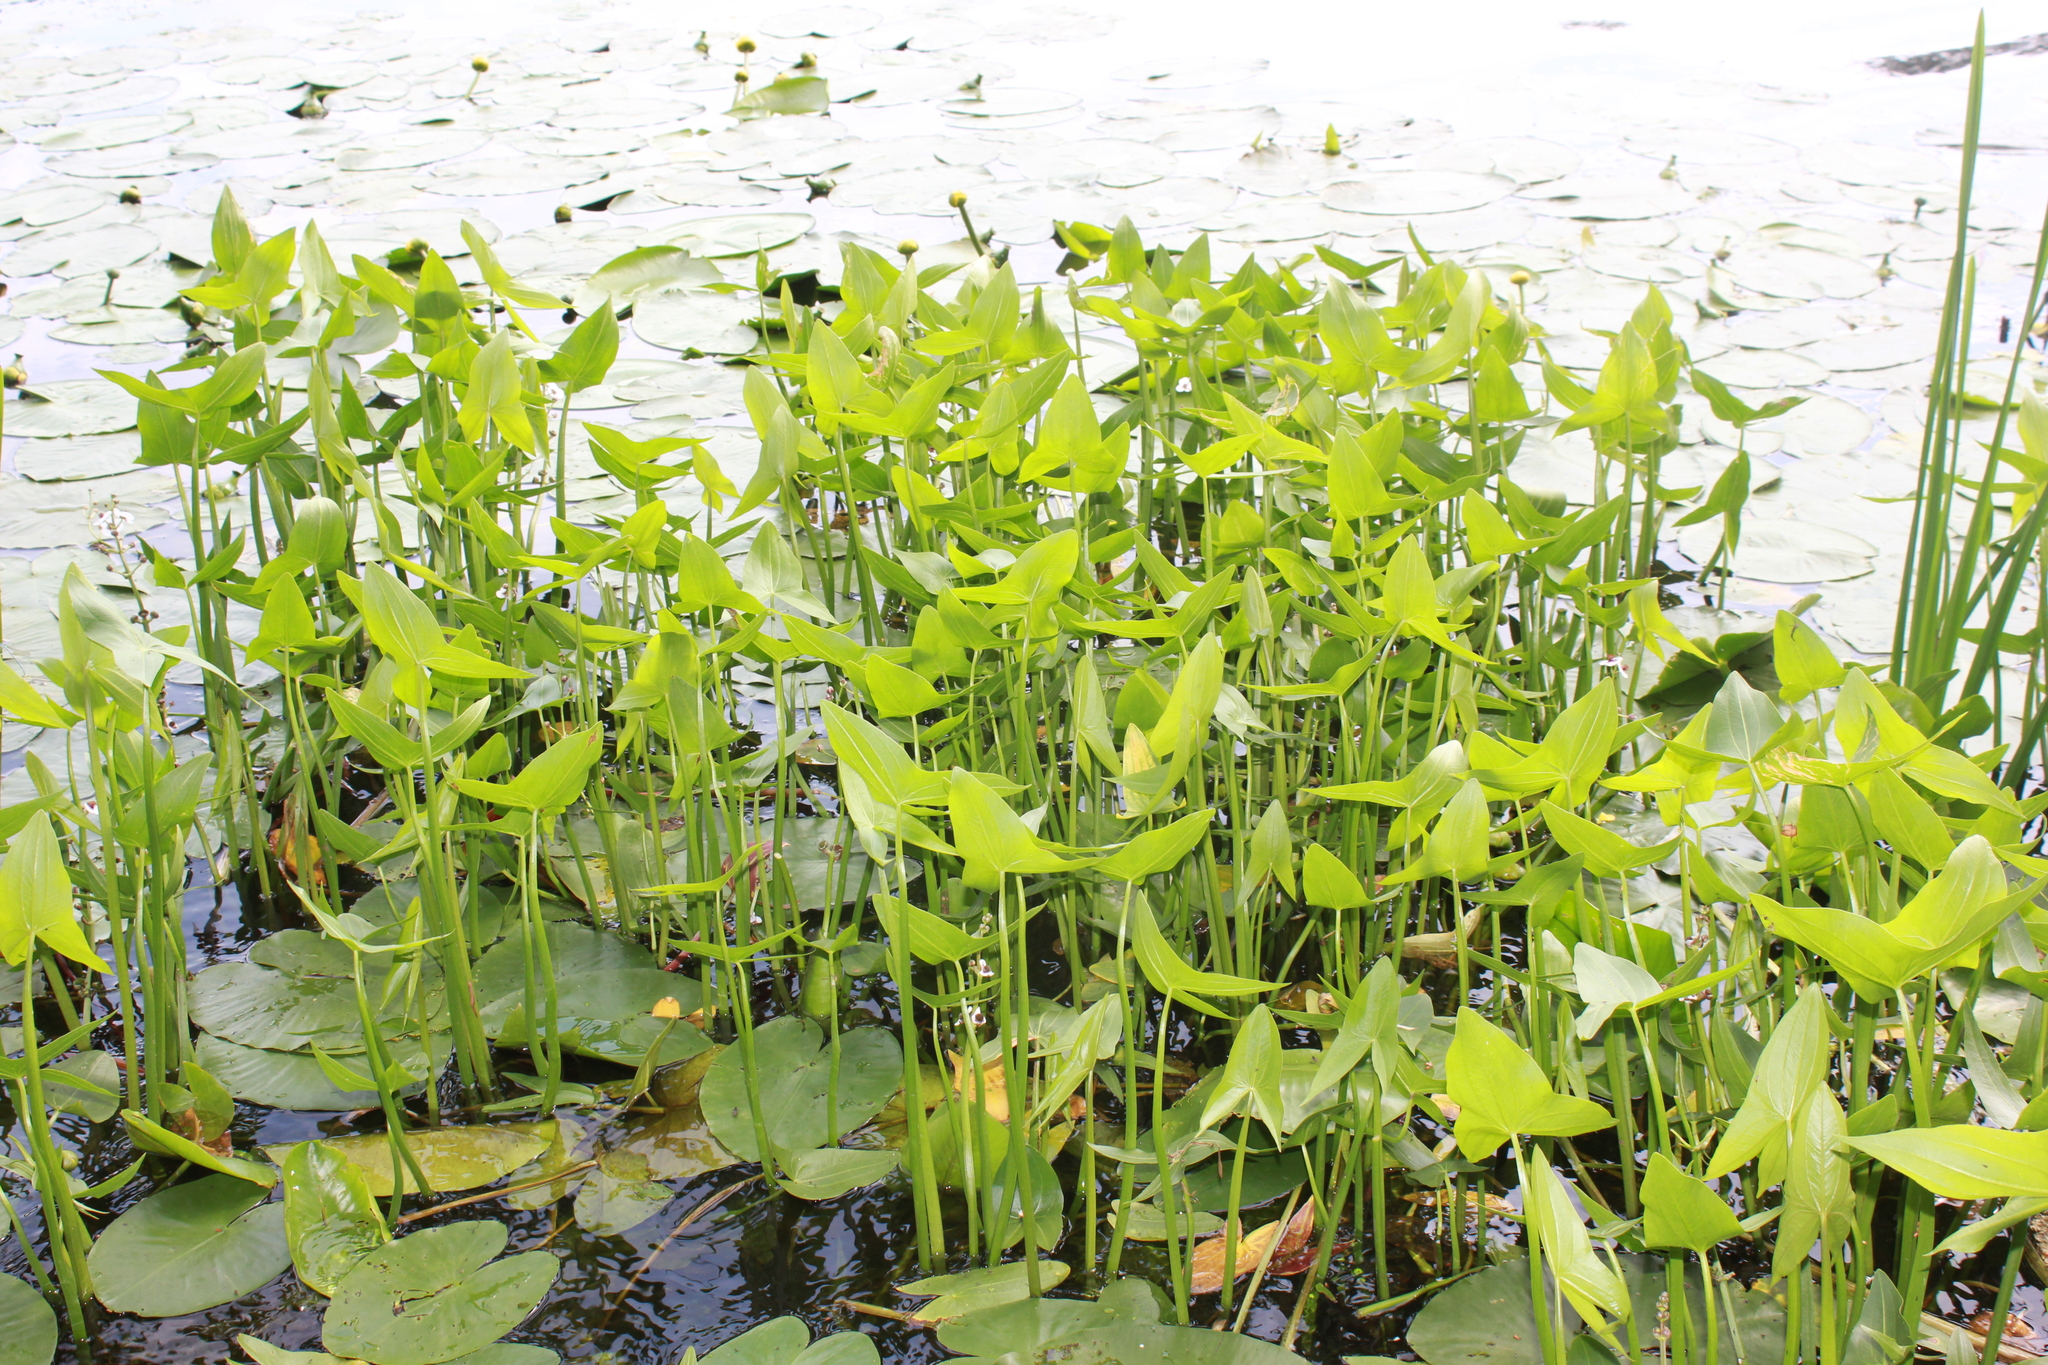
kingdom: Plantae
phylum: Tracheophyta
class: Liliopsida
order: Alismatales
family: Alismataceae
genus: Sagittaria
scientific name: Sagittaria sagittifolia
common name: Arrowhead
